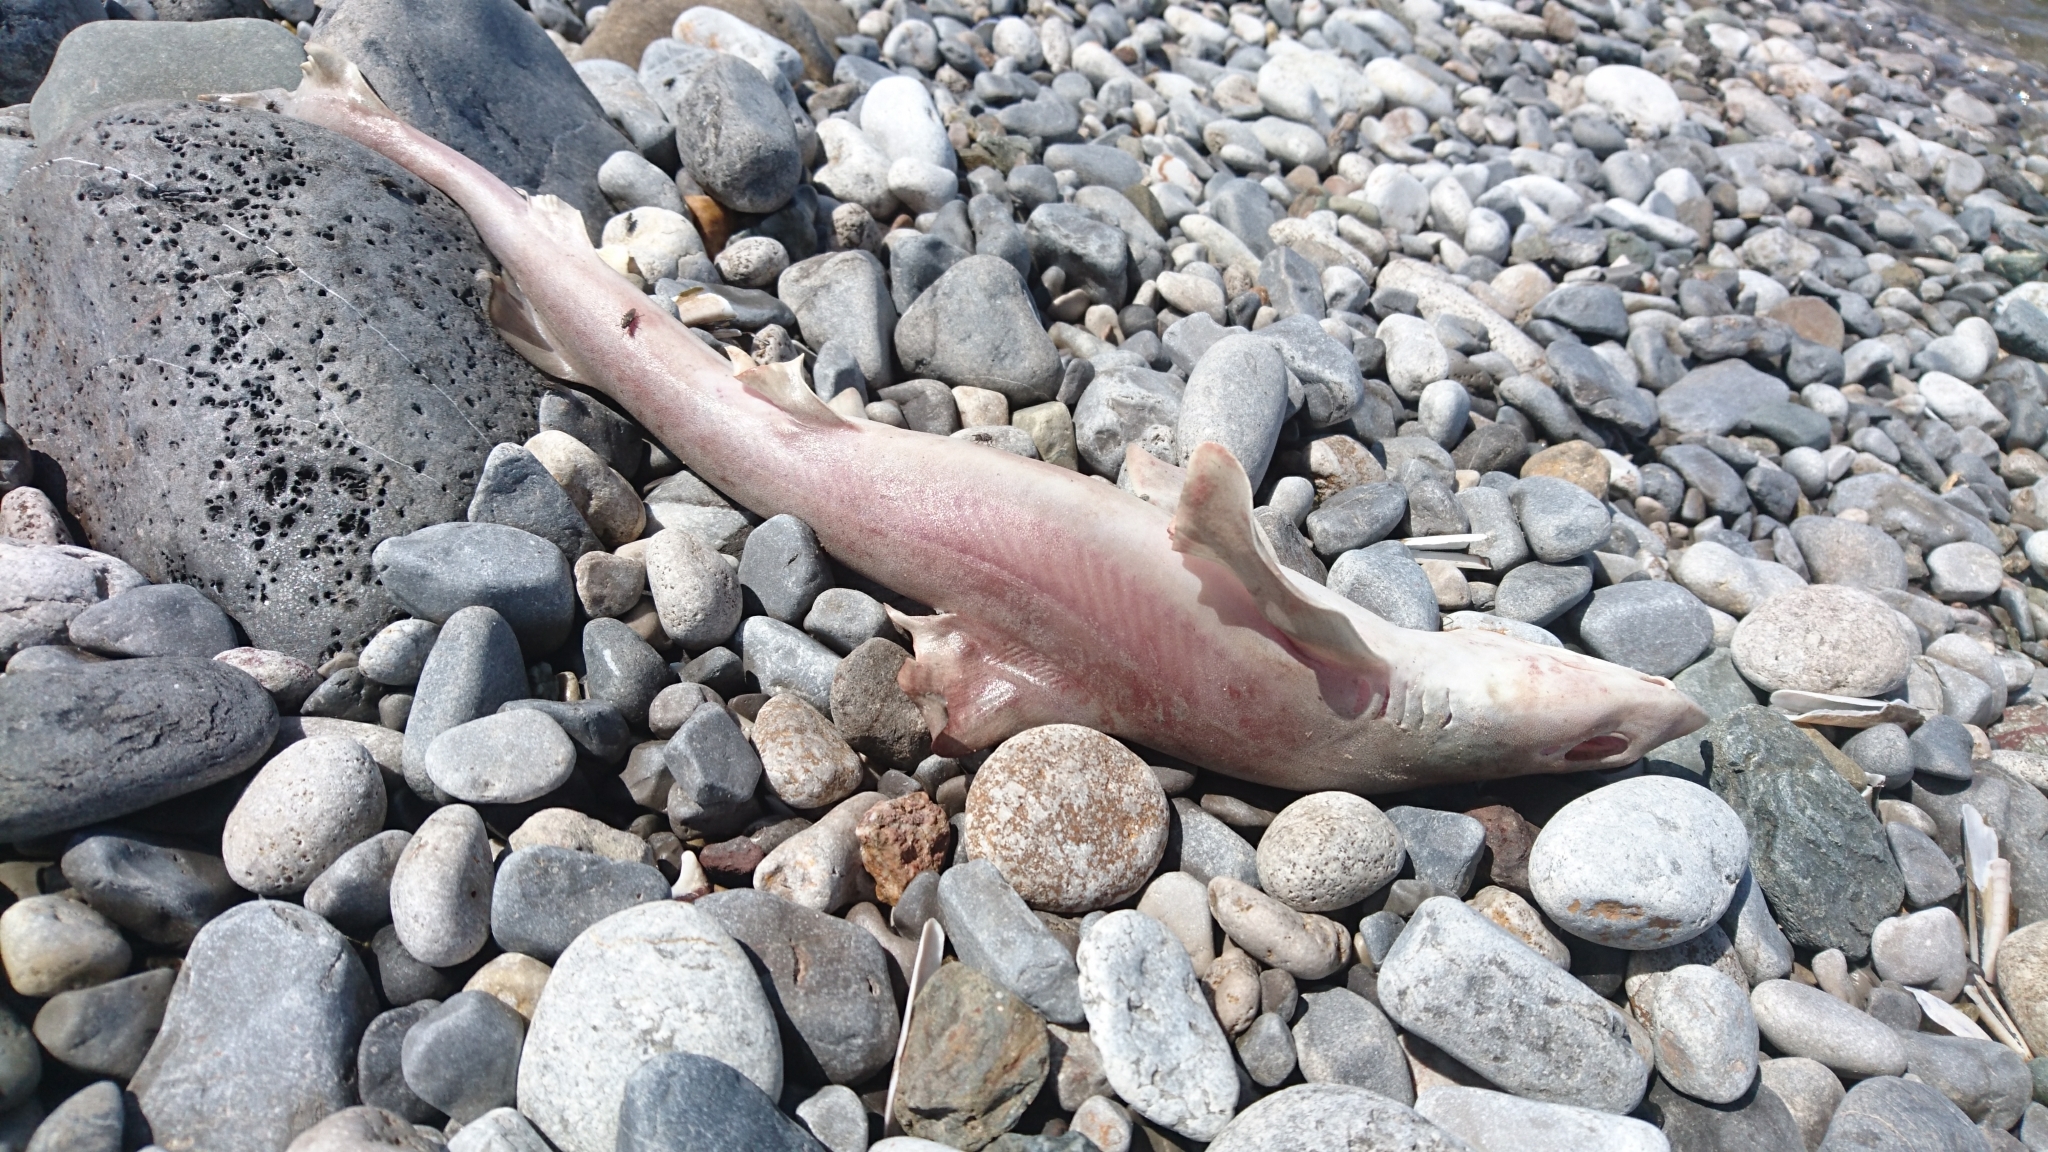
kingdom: Animalia
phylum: Chordata
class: Elasmobranchii
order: Carcharhiniformes
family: Triakidae
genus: Mustelus
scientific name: Mustelus mustelus
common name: Smooth-hound
